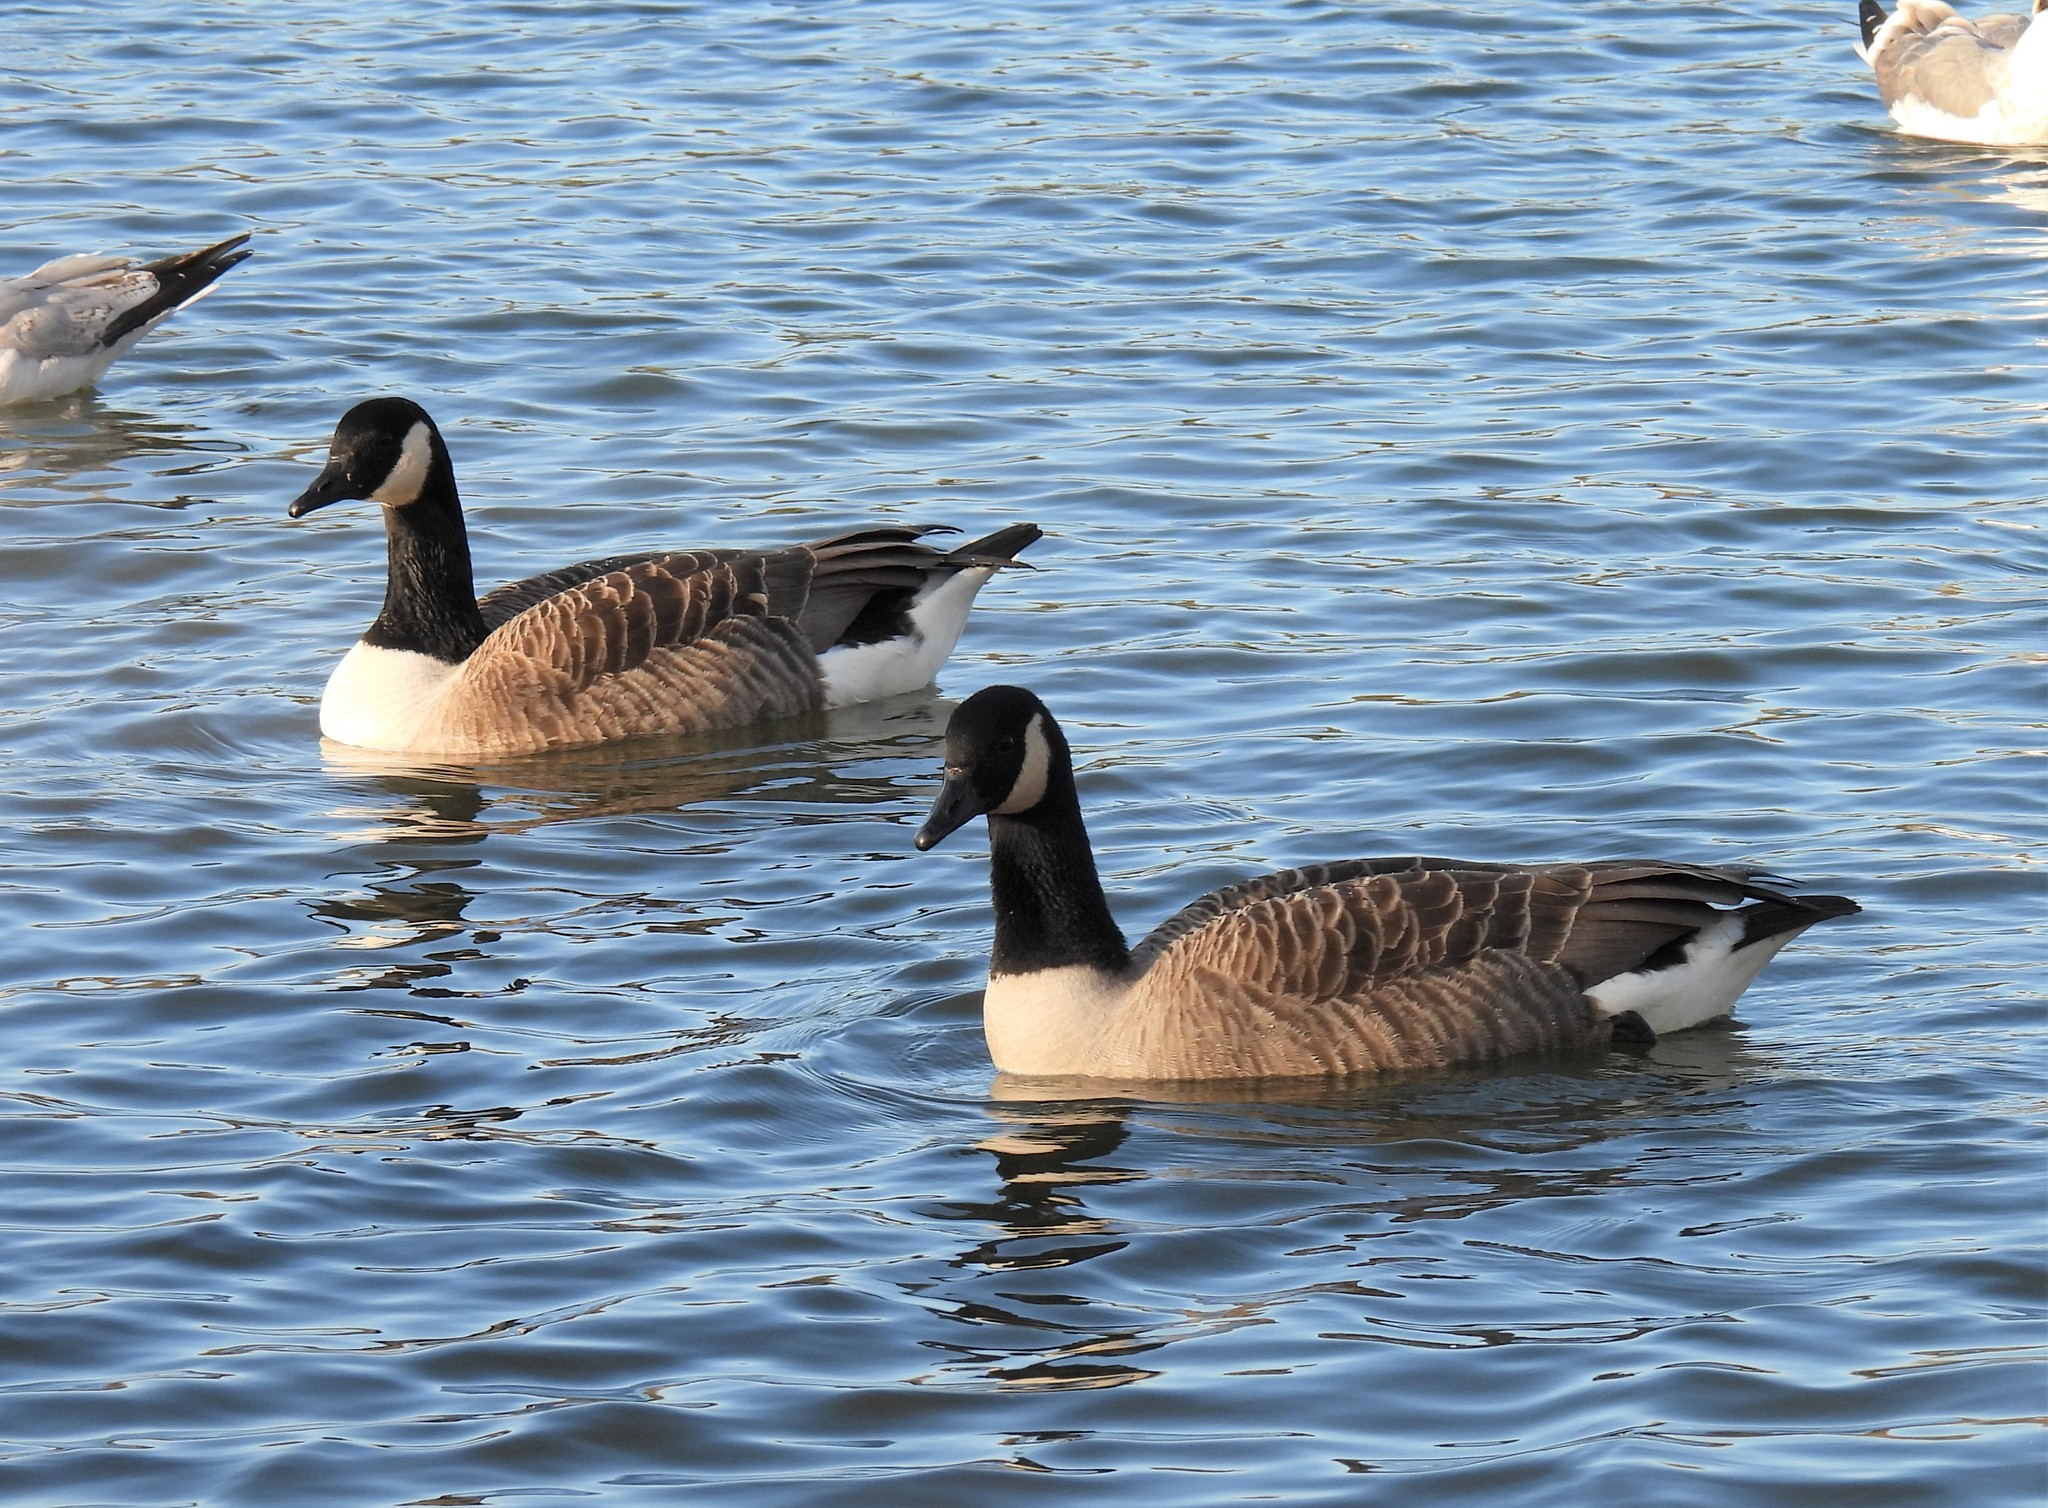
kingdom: Animalia
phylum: Chordata
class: Aves
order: Anseriformes
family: Anatidae
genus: Branta
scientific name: Branta canadensis
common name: Canada goose
